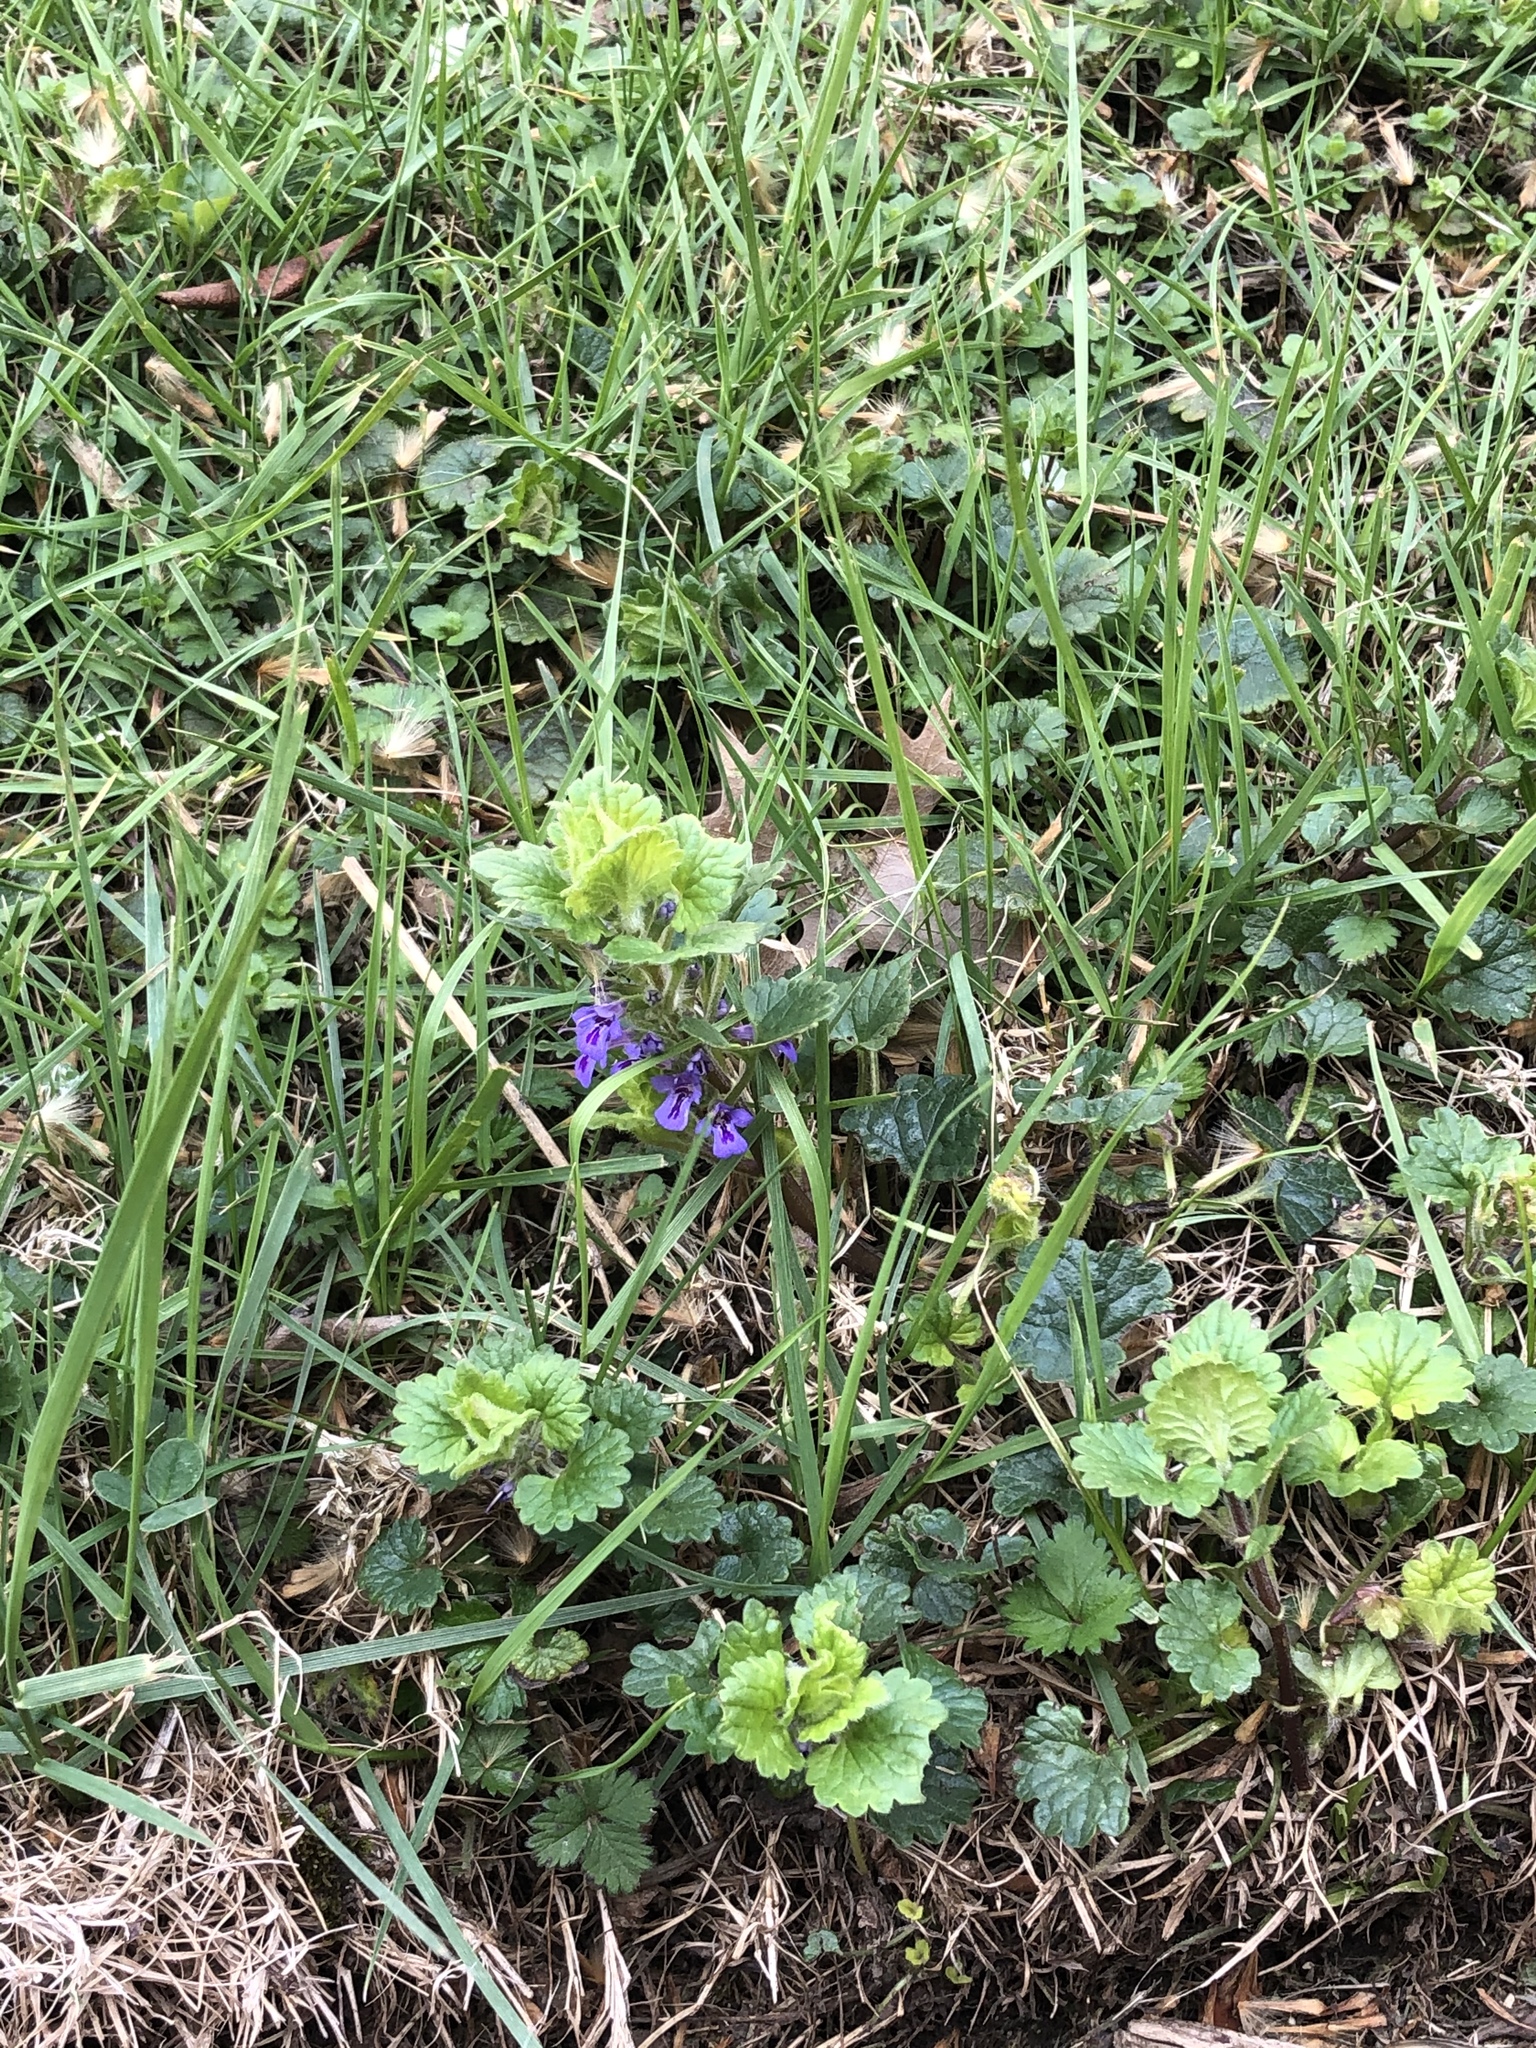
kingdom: Plantae
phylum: Tracheophyta
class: Magnoliopsida
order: Lamiales
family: Lamiaceae
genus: Glechoma
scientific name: Glechoma hederacea
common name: Ground ivy
